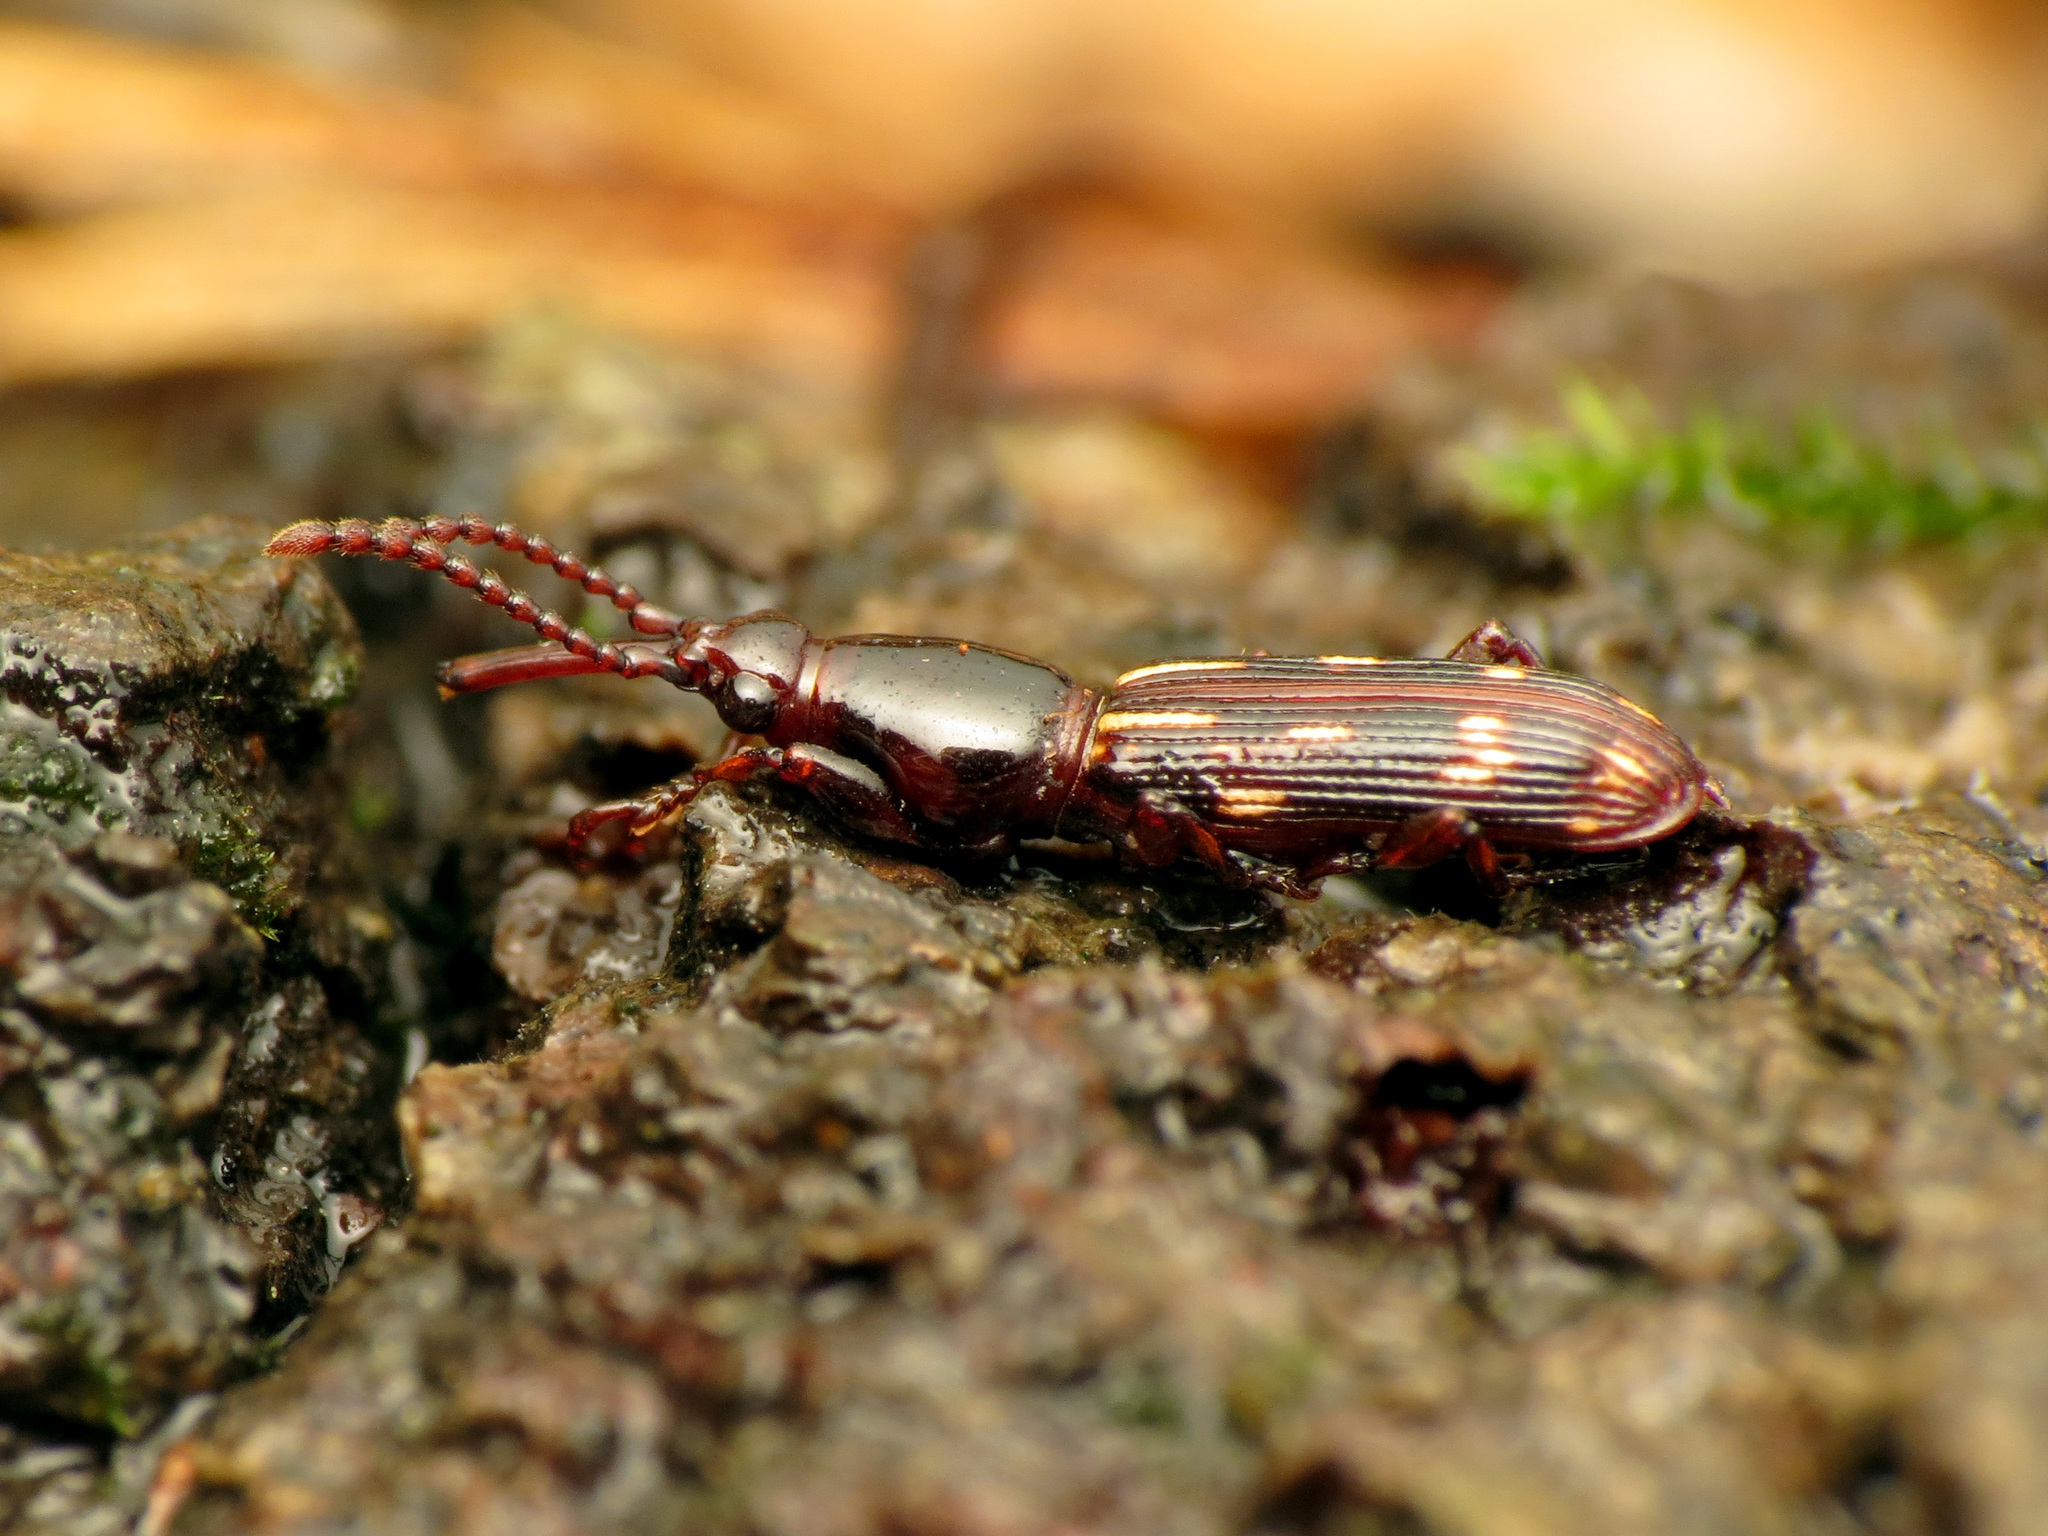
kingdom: Animalia
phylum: Arthropoda
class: Insecta
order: Coleoptera
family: Brentidae
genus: Arrenodes
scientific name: Arrenodes minutus
